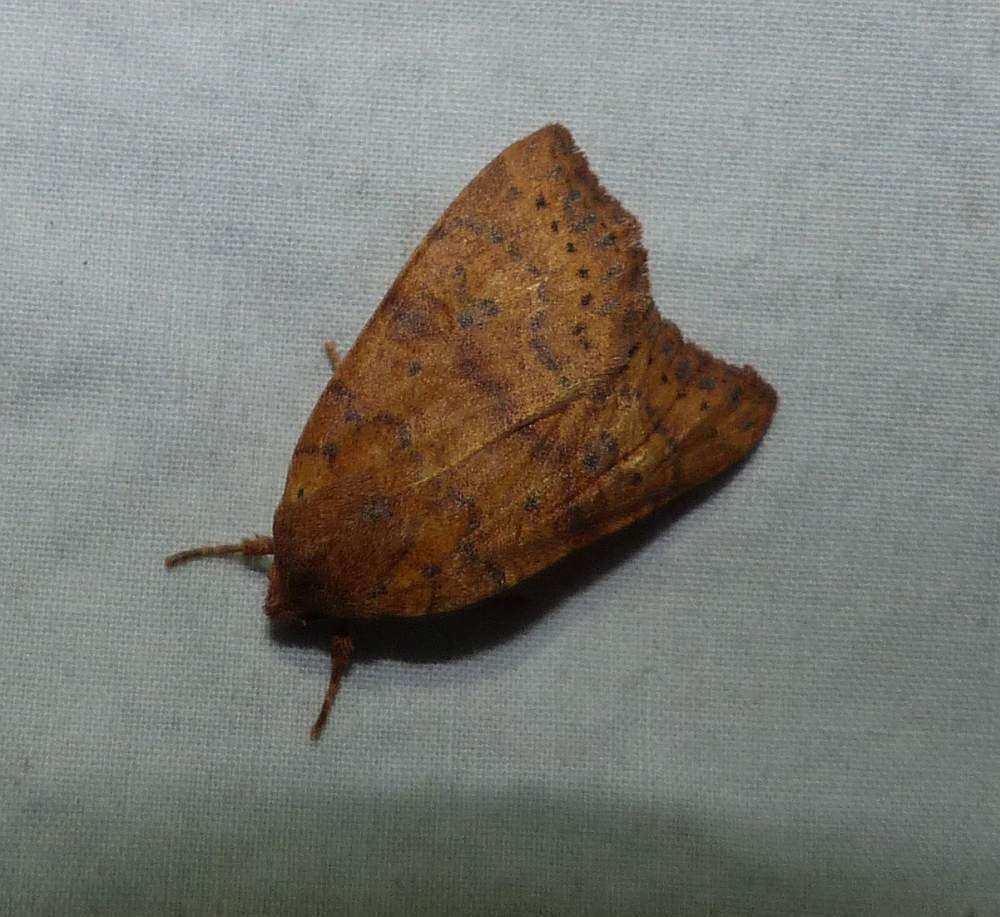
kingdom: Animalia
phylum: Arthropoda
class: Insecta
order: Lepidoptera
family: Noctuidae
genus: Anathix
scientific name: Anathix ralla
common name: Dotted sallow
